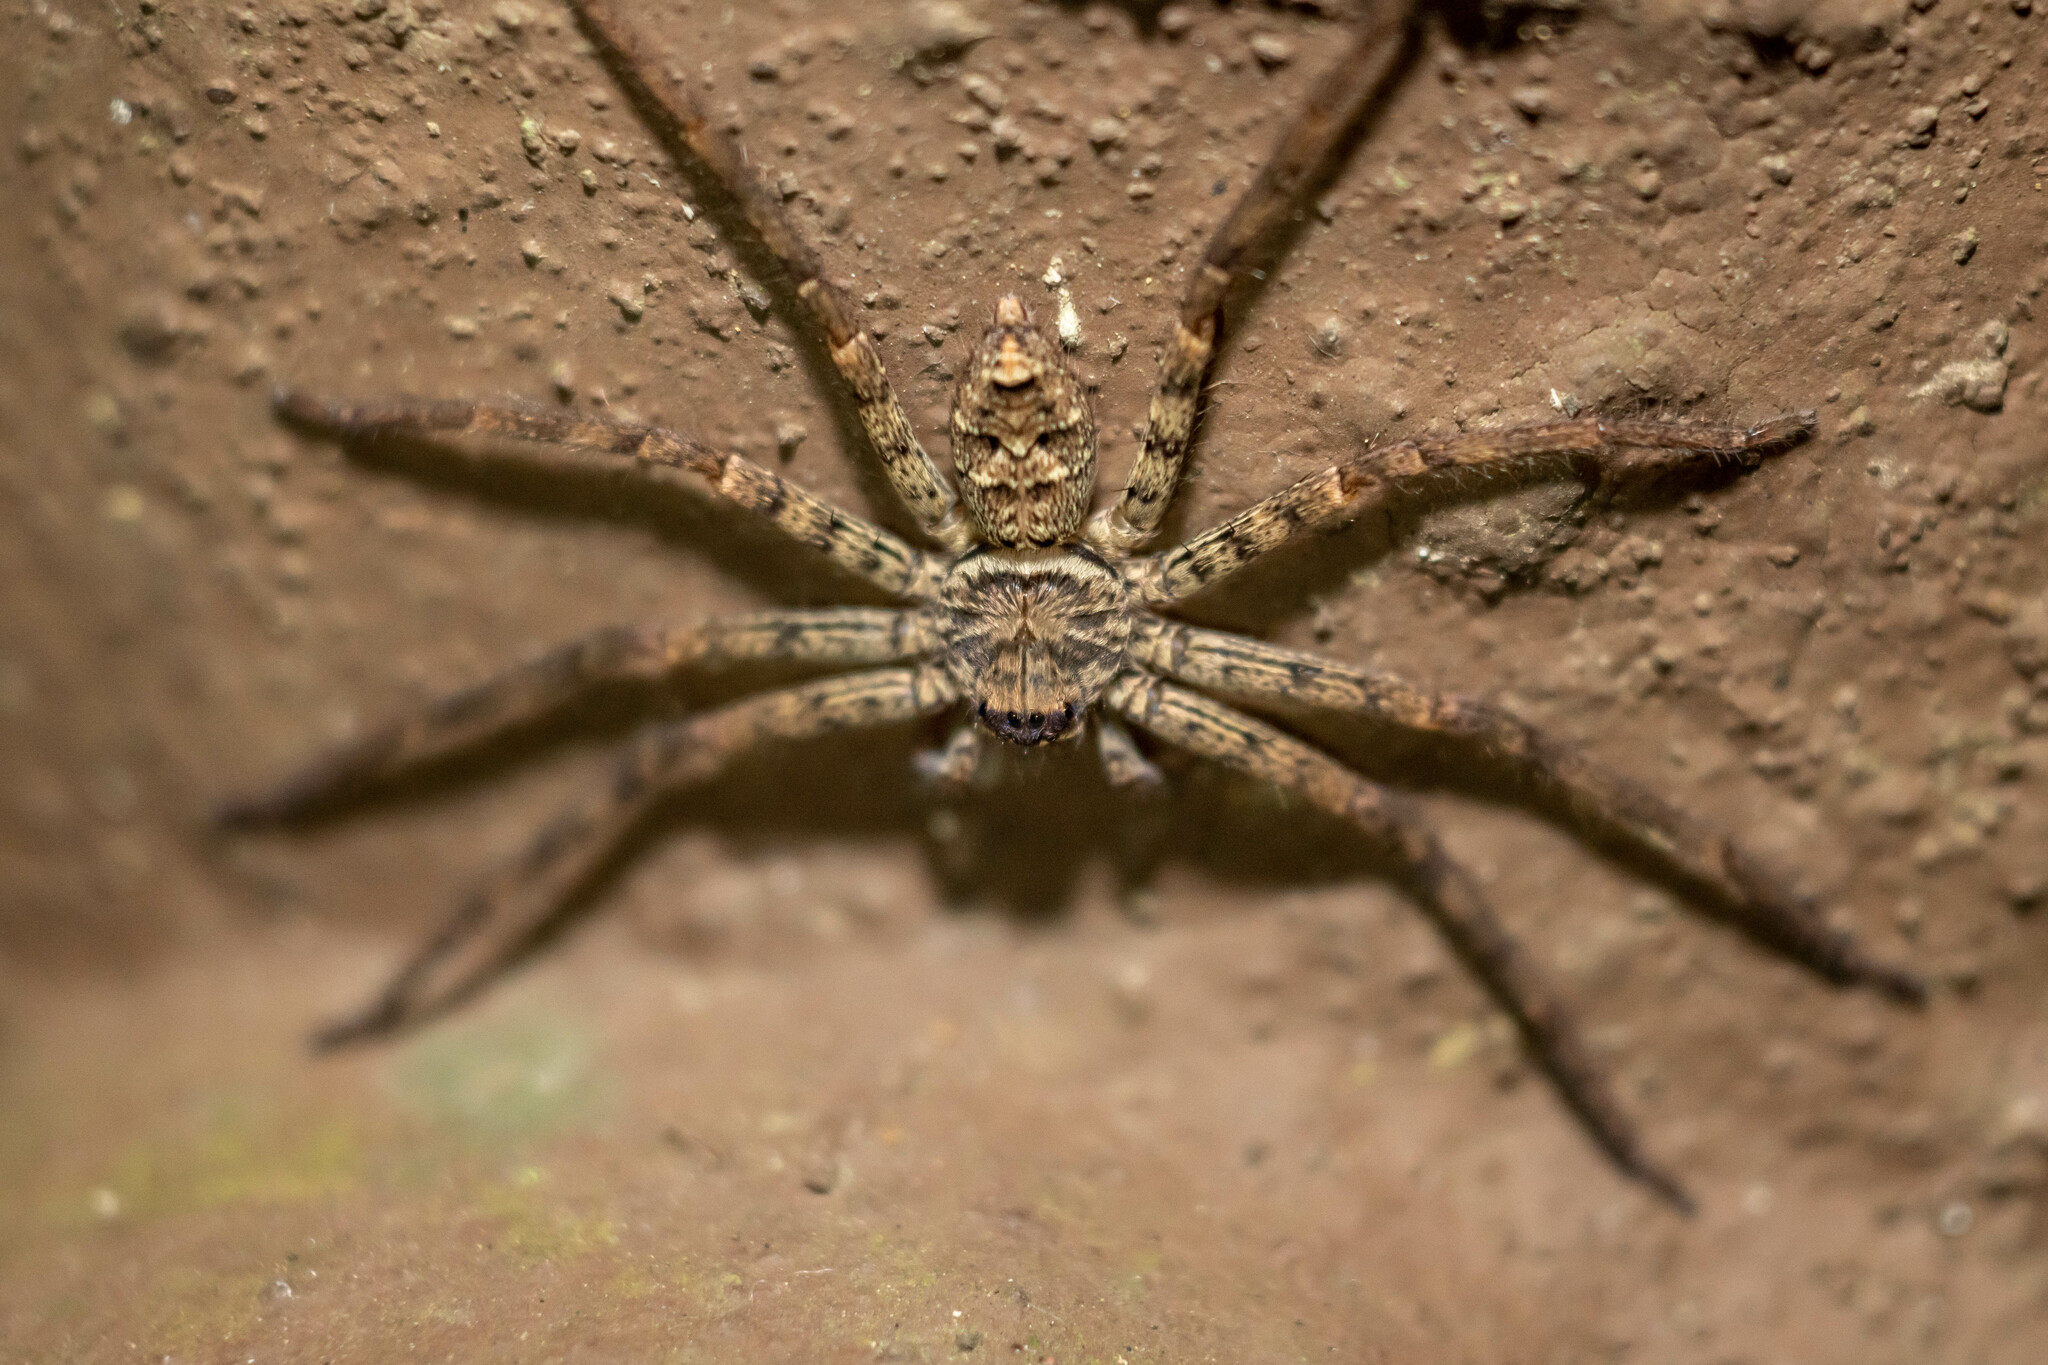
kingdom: Animalia
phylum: Arthropoda
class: Arachnida
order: Araneae
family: Sparassidae
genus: Heteropoda
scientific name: Heteropoda venatoria
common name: Huntsman spider
